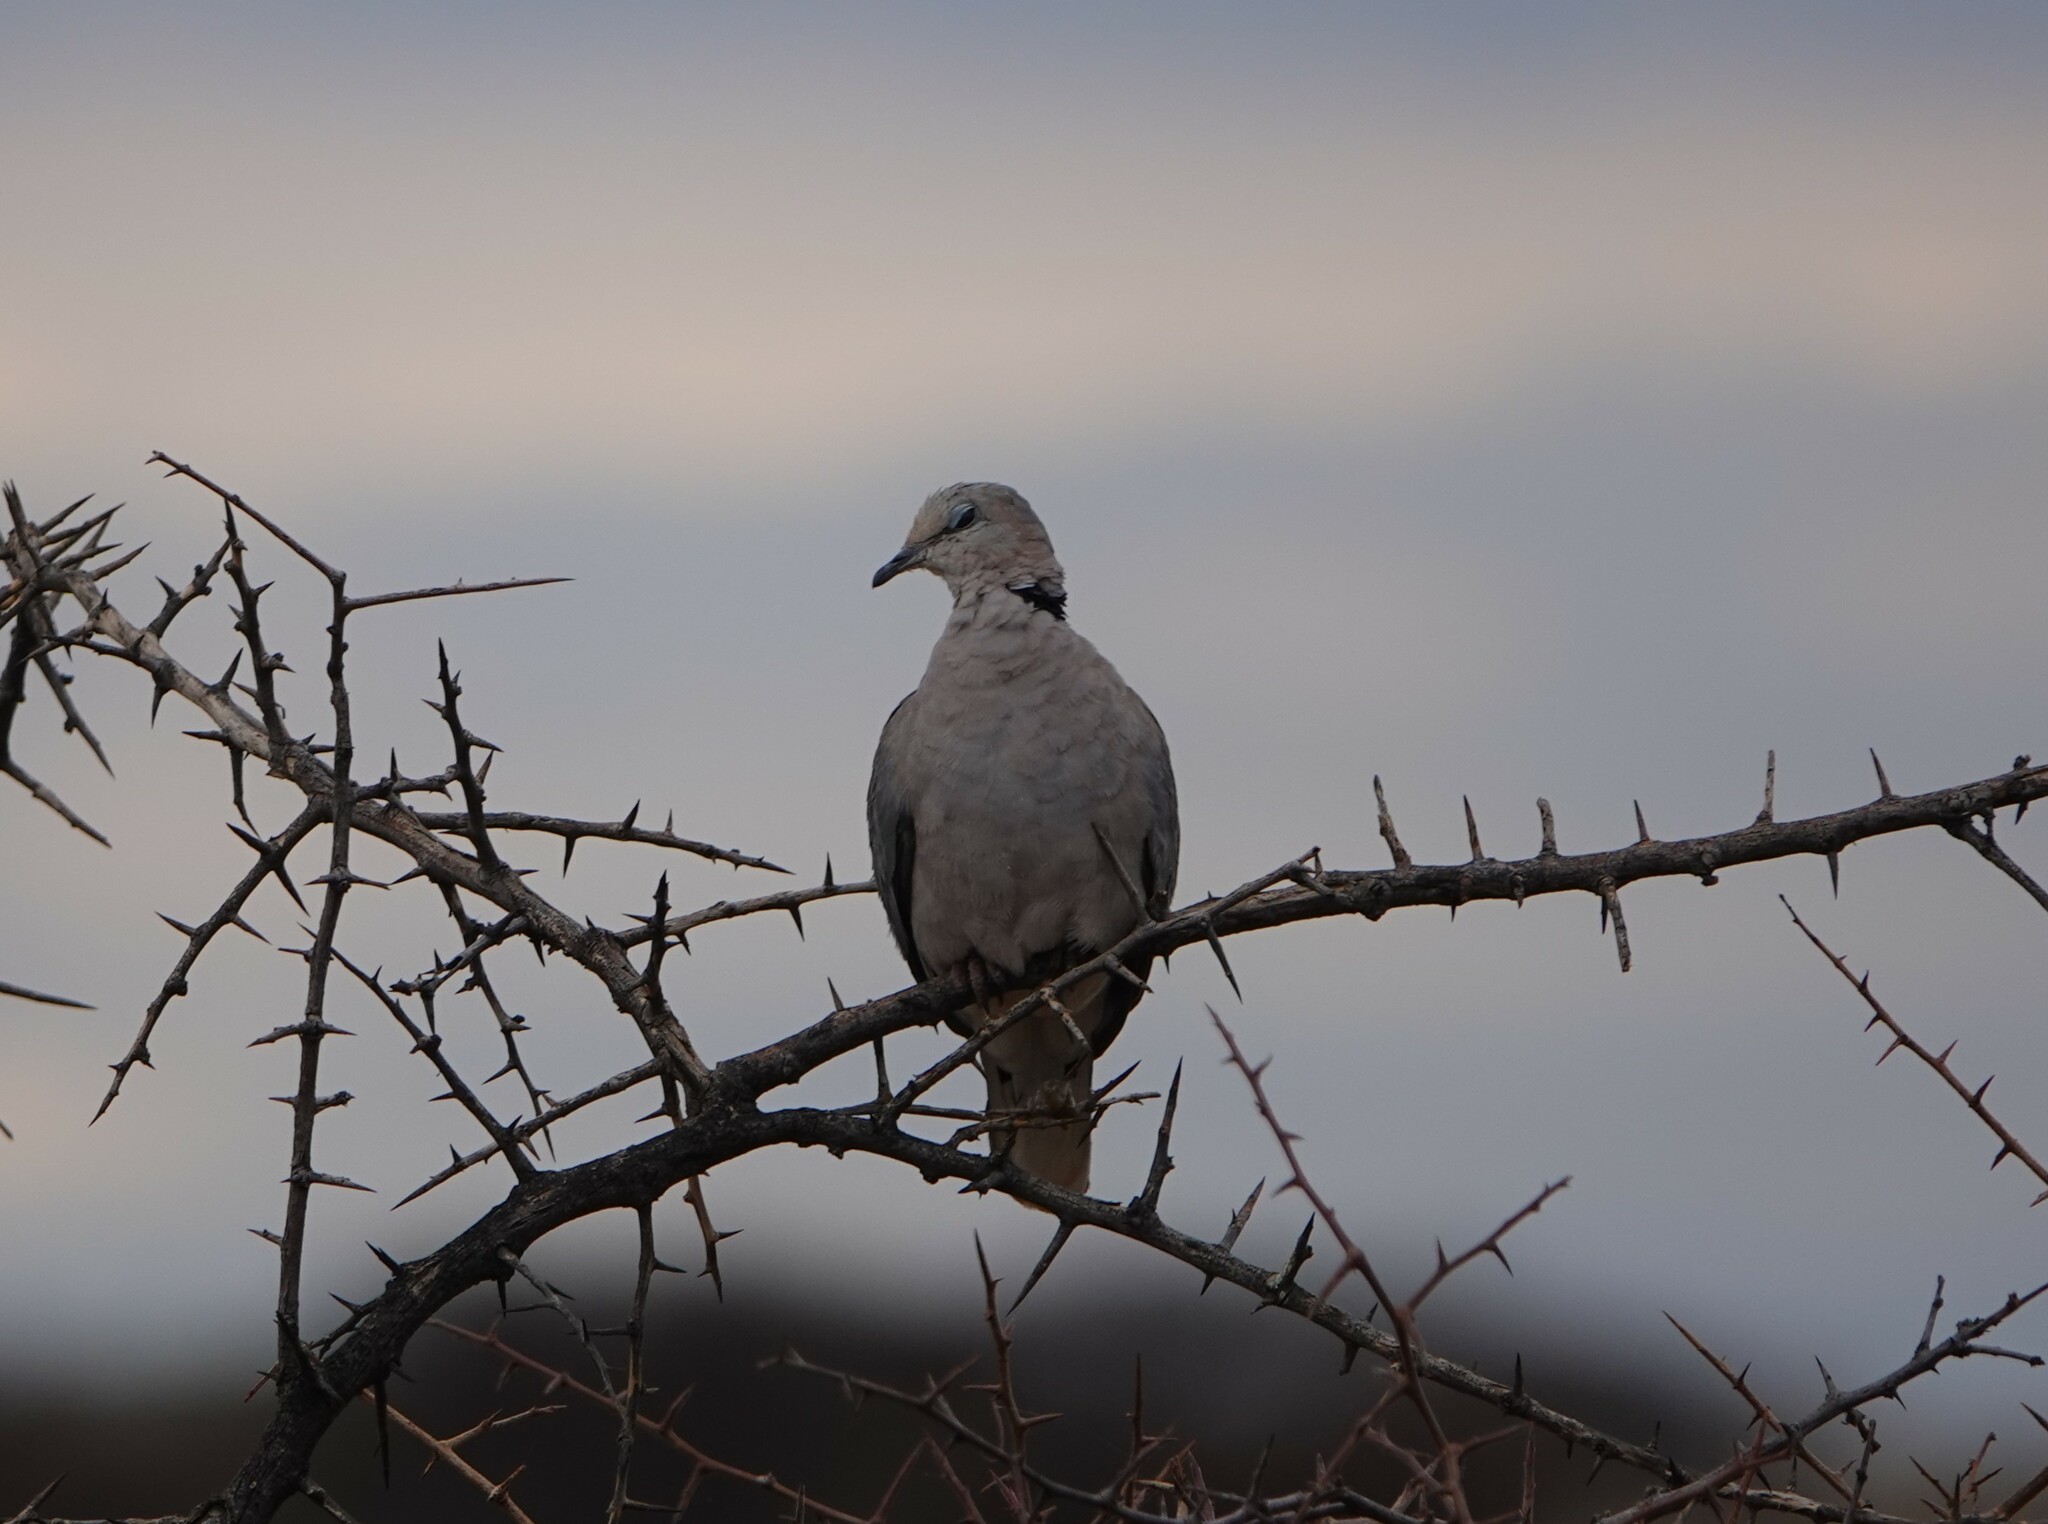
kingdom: Animalia
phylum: Chordata
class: Aves
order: Columbiformes
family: Columbidae
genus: Streptopelia
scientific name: Streptopelia capicola
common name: Ring-necked dove
